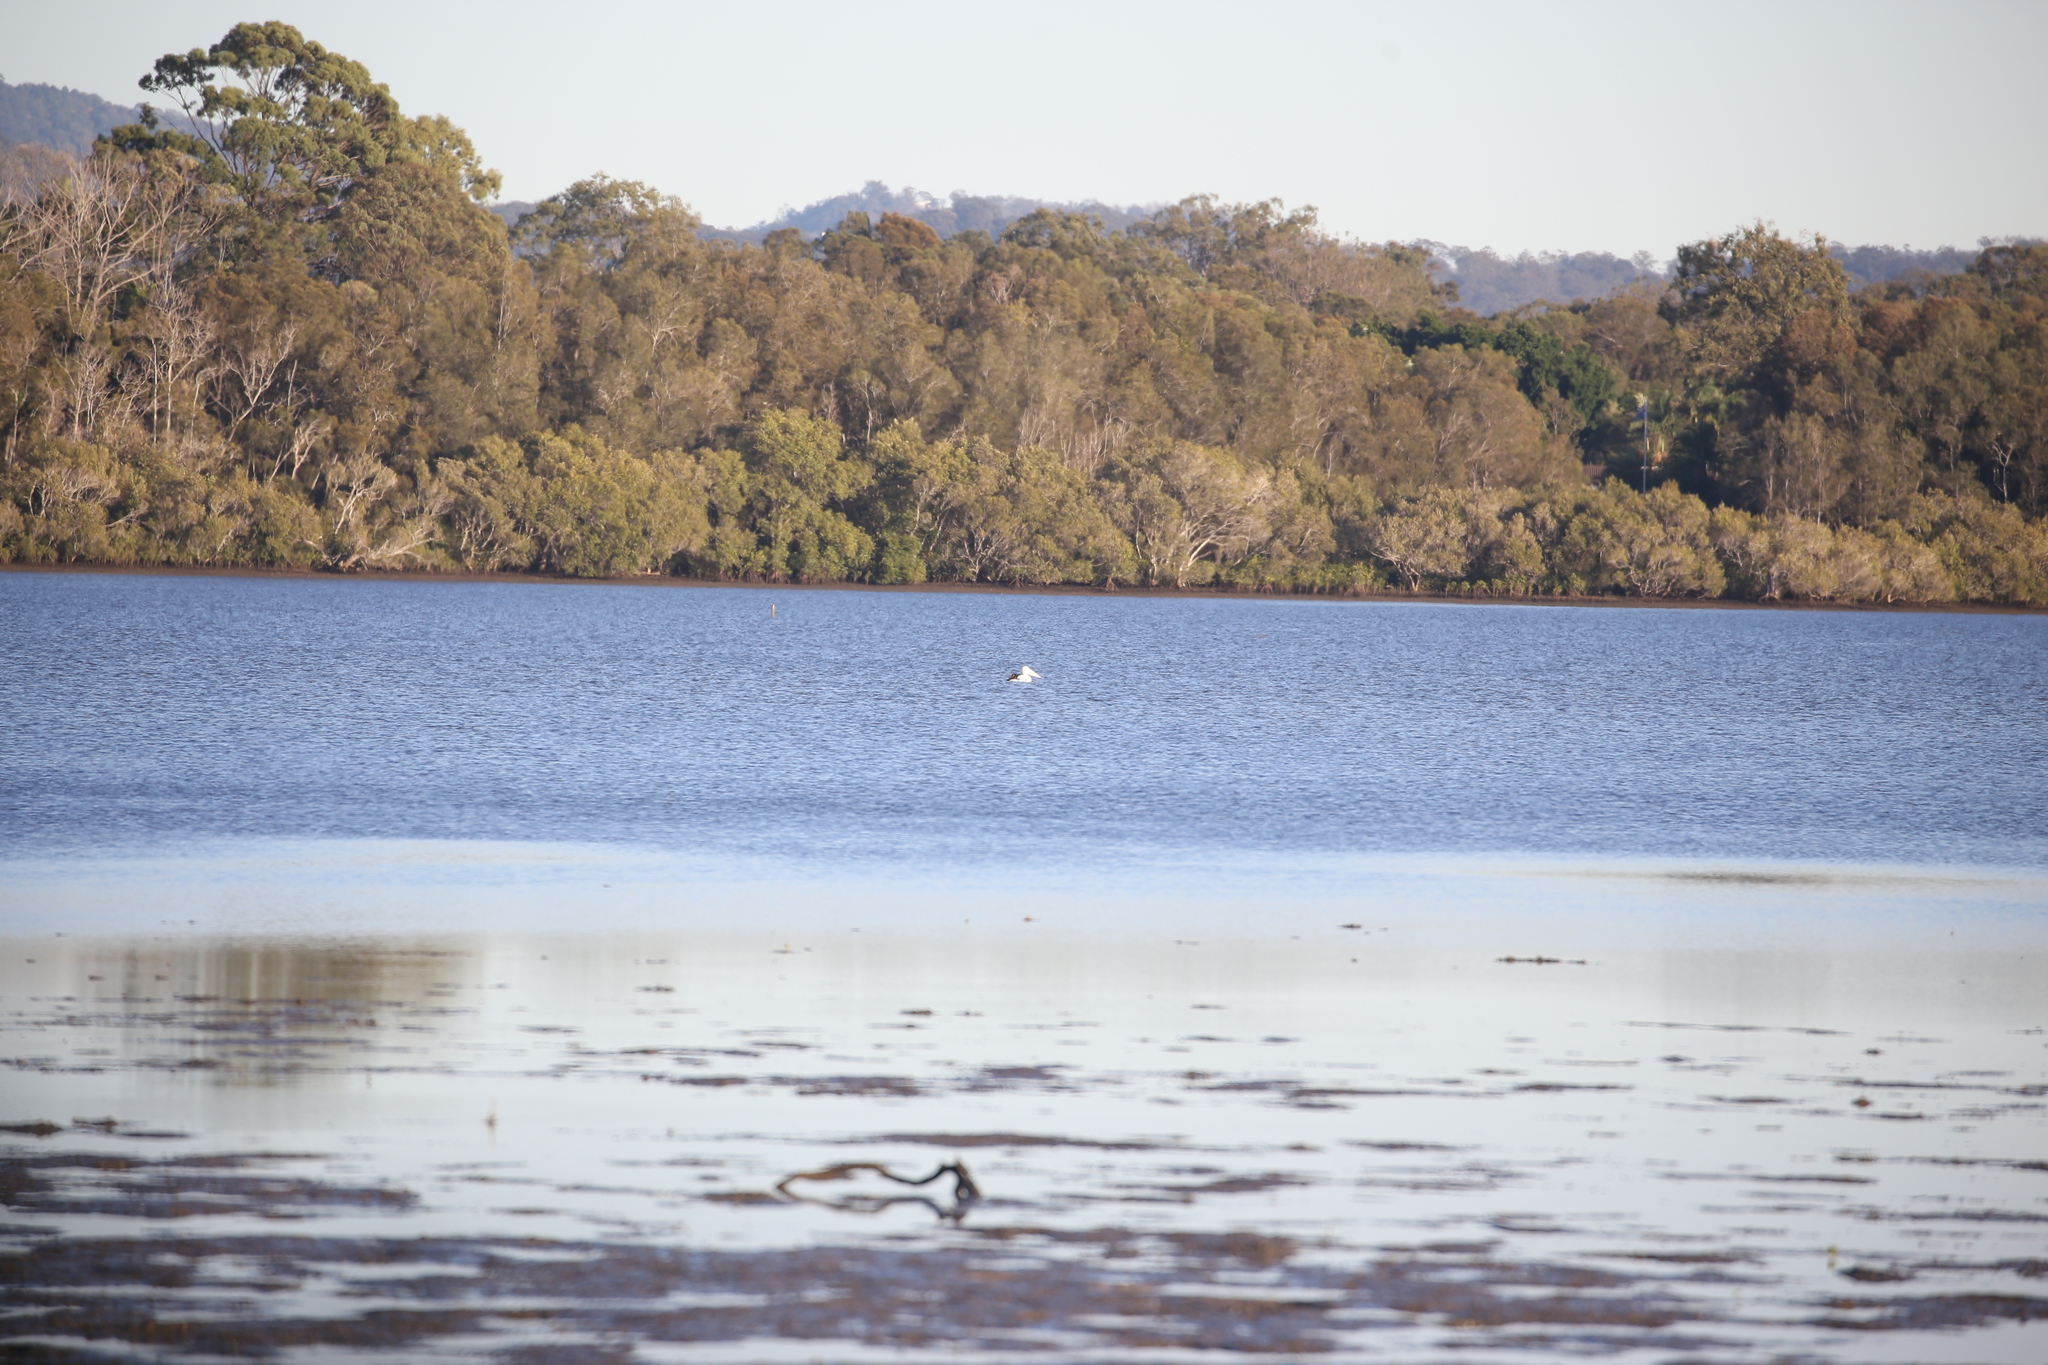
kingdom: Animalia
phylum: Chordata
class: Aves
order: Pelecaniformes
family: Pelecanidae
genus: Pelecanus
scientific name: Pelecanus conspicillatus
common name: Australian pelican
